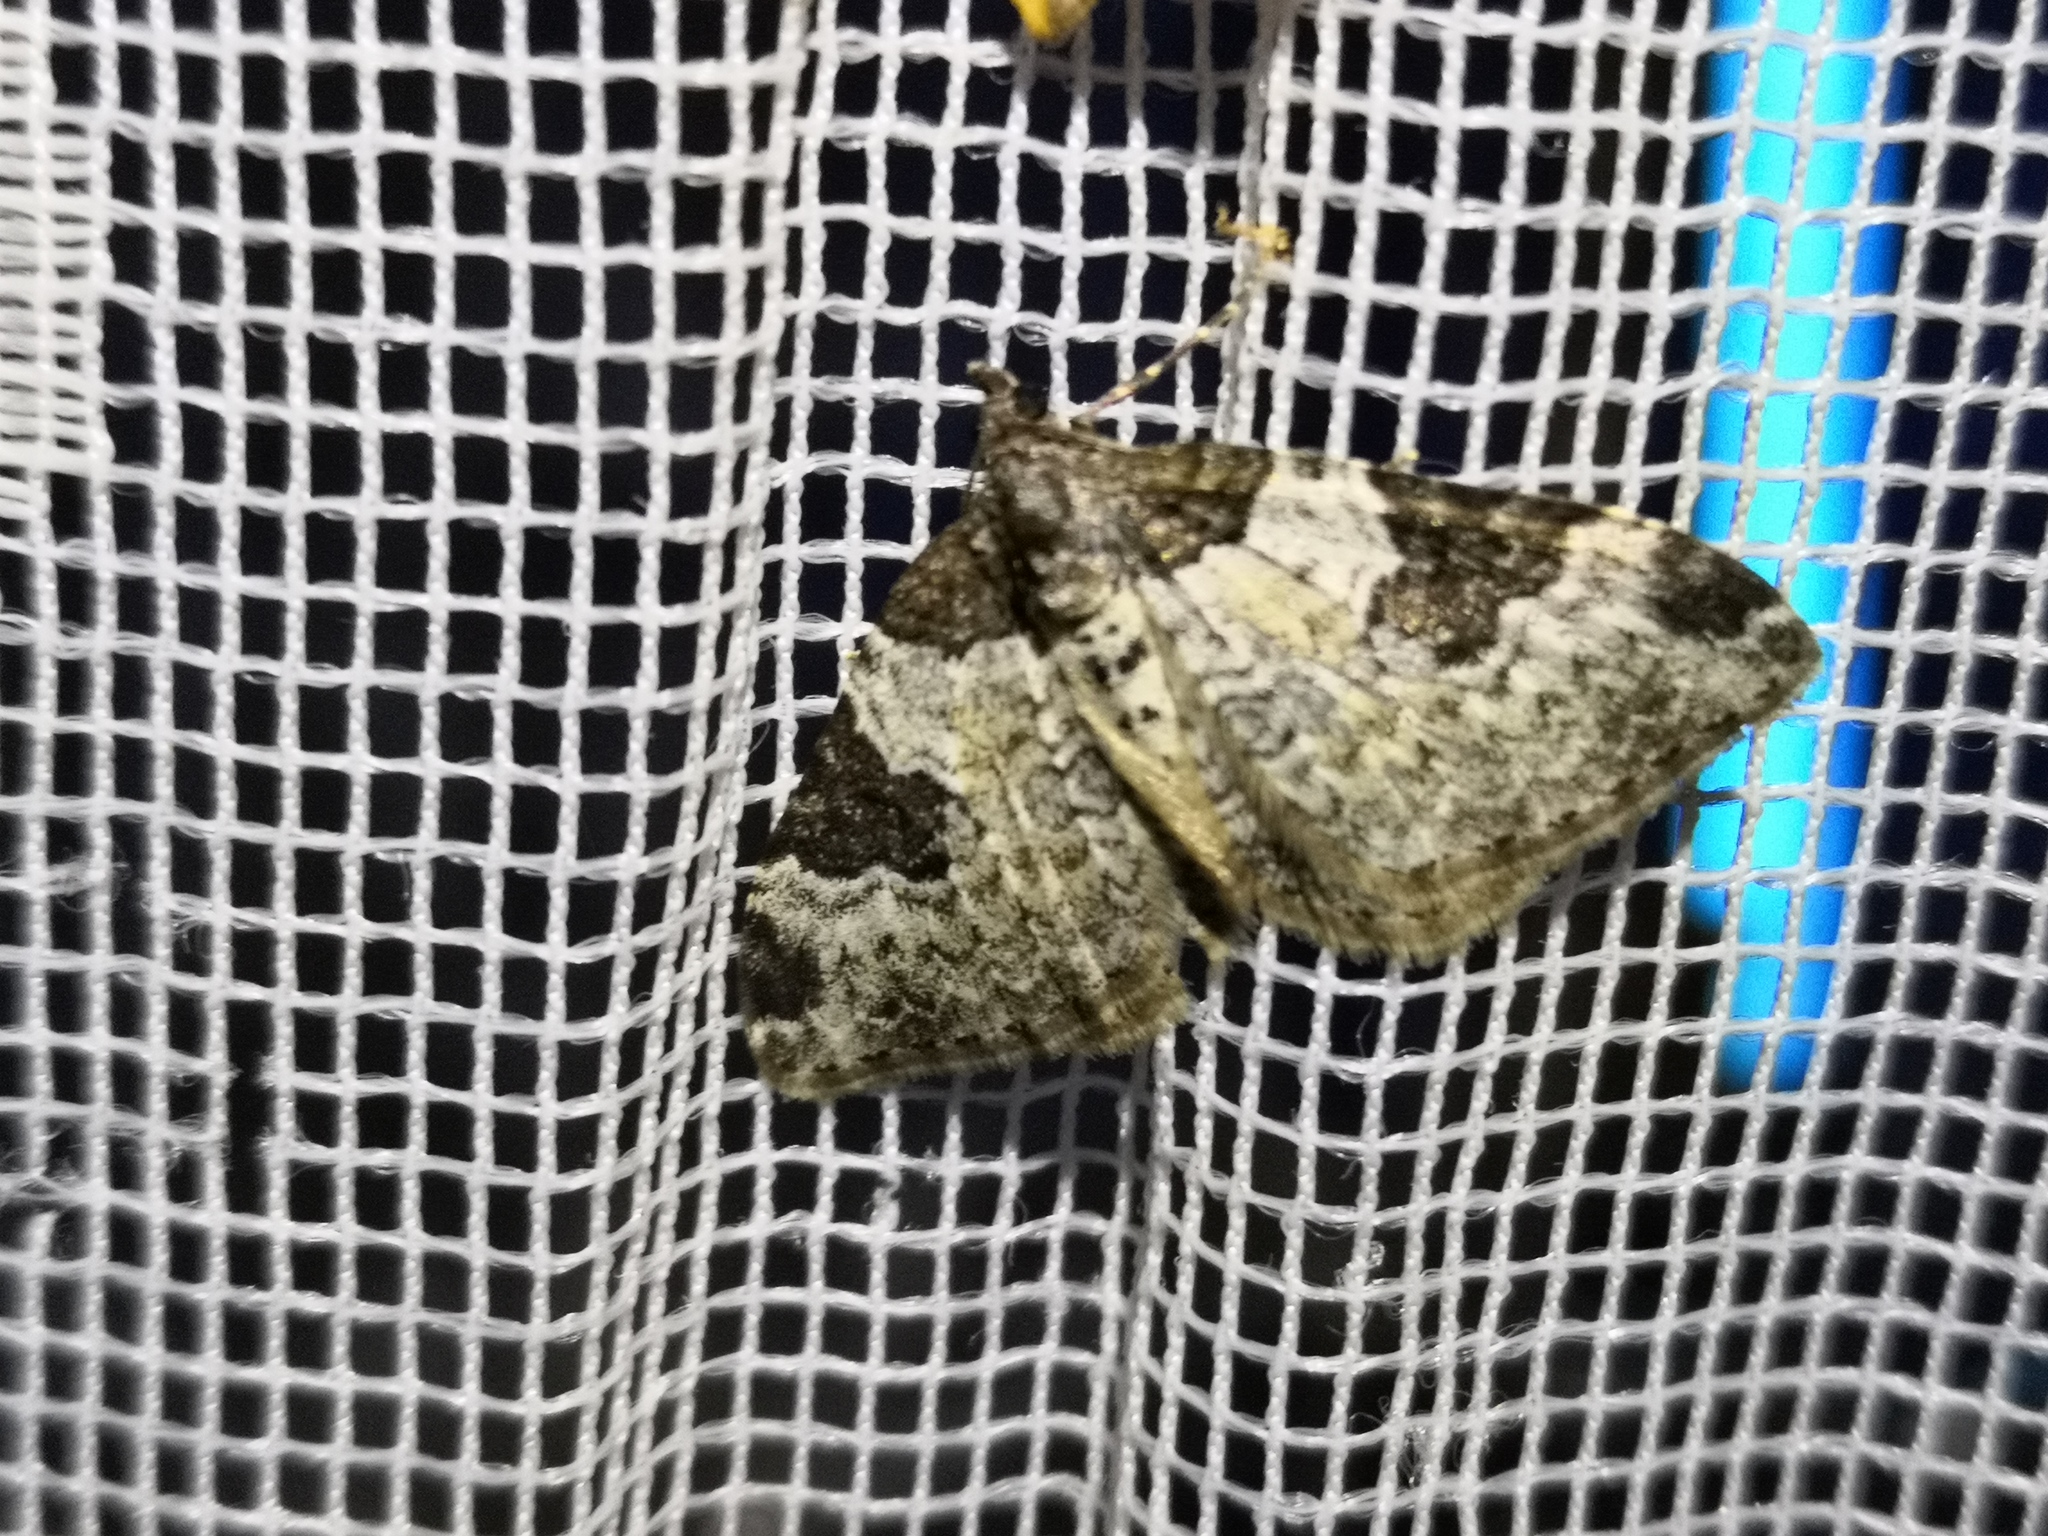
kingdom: Animalia
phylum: Arthropoda
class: Insecta
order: Lepidoptera
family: Geometridae
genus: Xanthorhoe
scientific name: Xanthorhoe fluctuata
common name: Garden carpet
